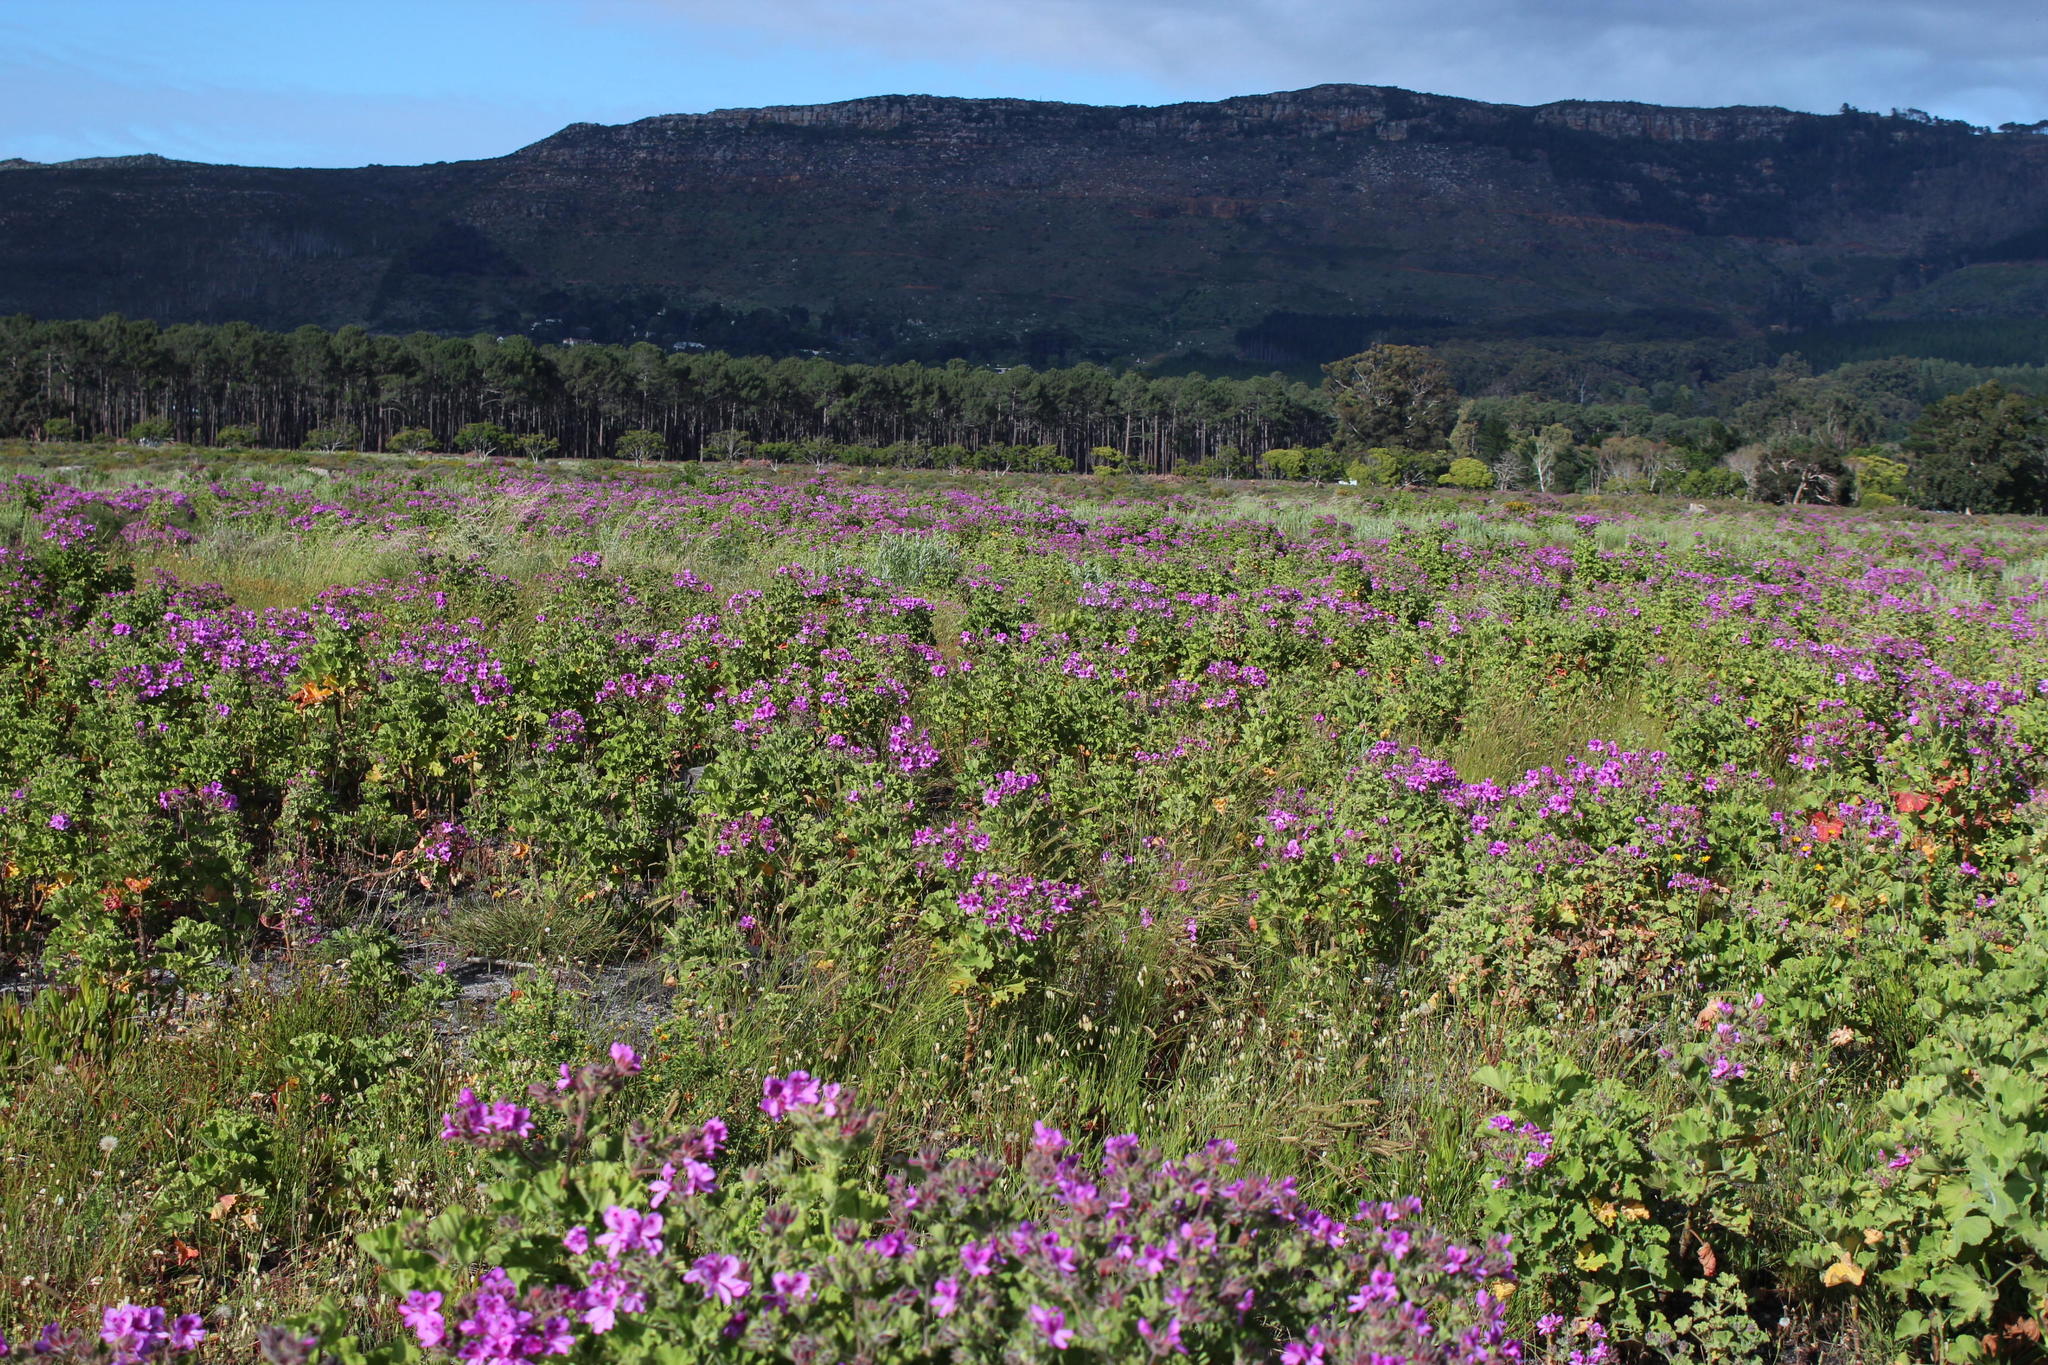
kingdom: Plantae
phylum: Tracheophyta
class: Magnoliopsida
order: Geraniales
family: Geraniaceae
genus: Pelargonium
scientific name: Pelargonium cucullatum
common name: Tree pelargonium
